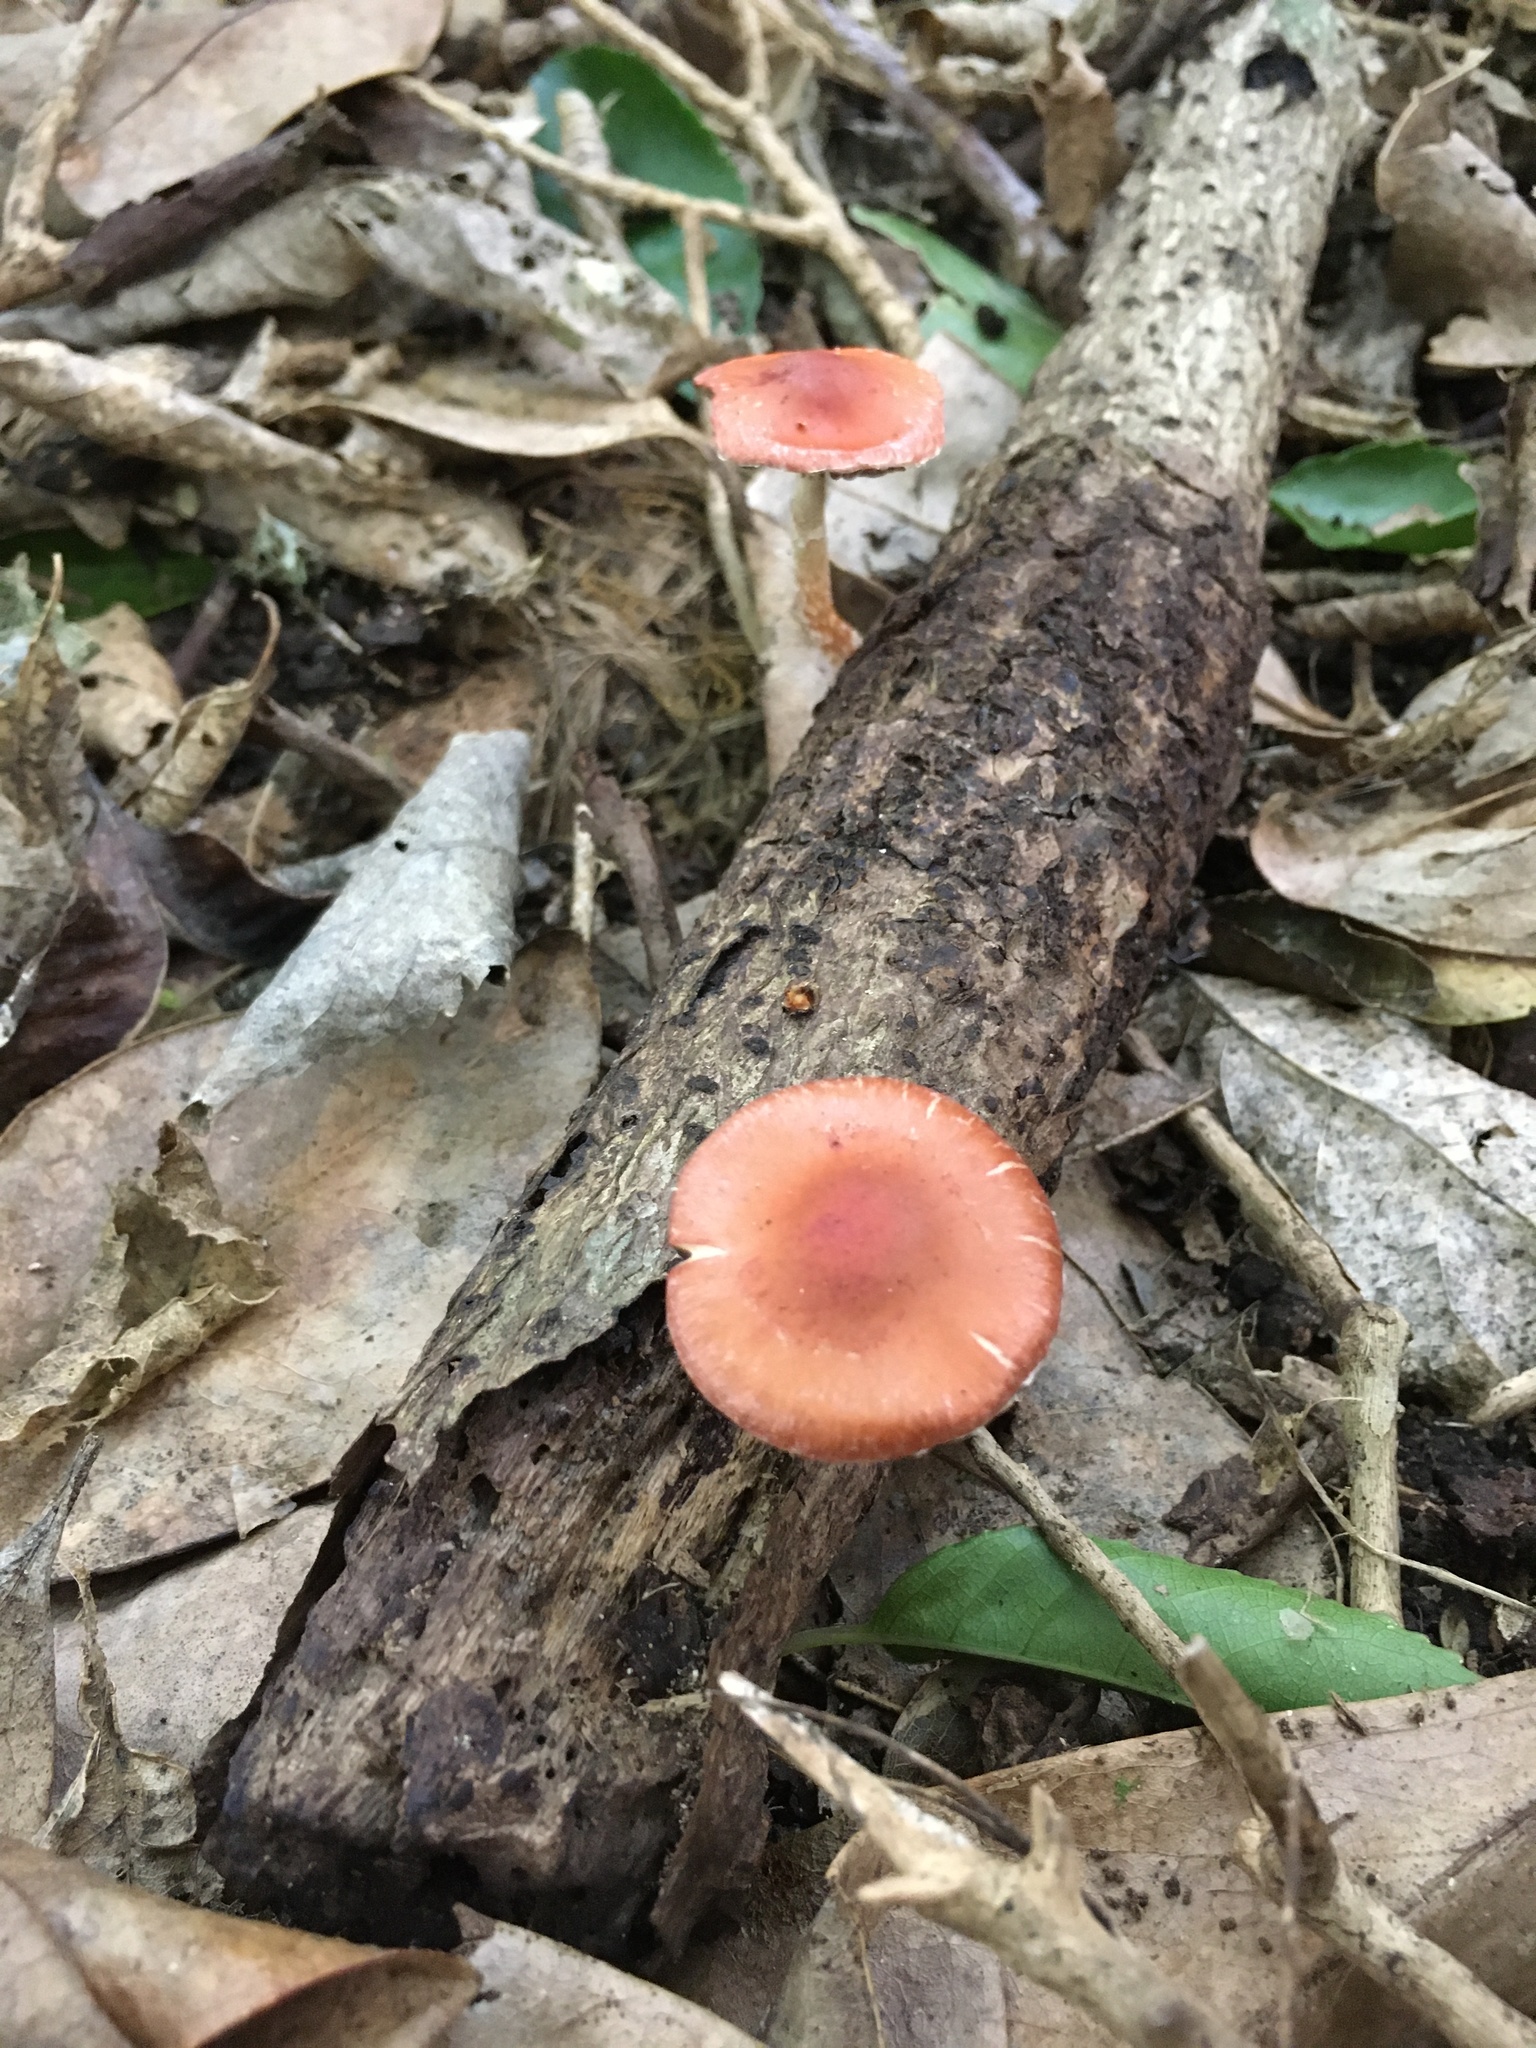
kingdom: Fungi
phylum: Basidiomycota
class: Agaricomycetes
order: Agaricales
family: Strophariaceae
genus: Leratiomyces
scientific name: Leratiomyces ceres
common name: Redlead roundhead
